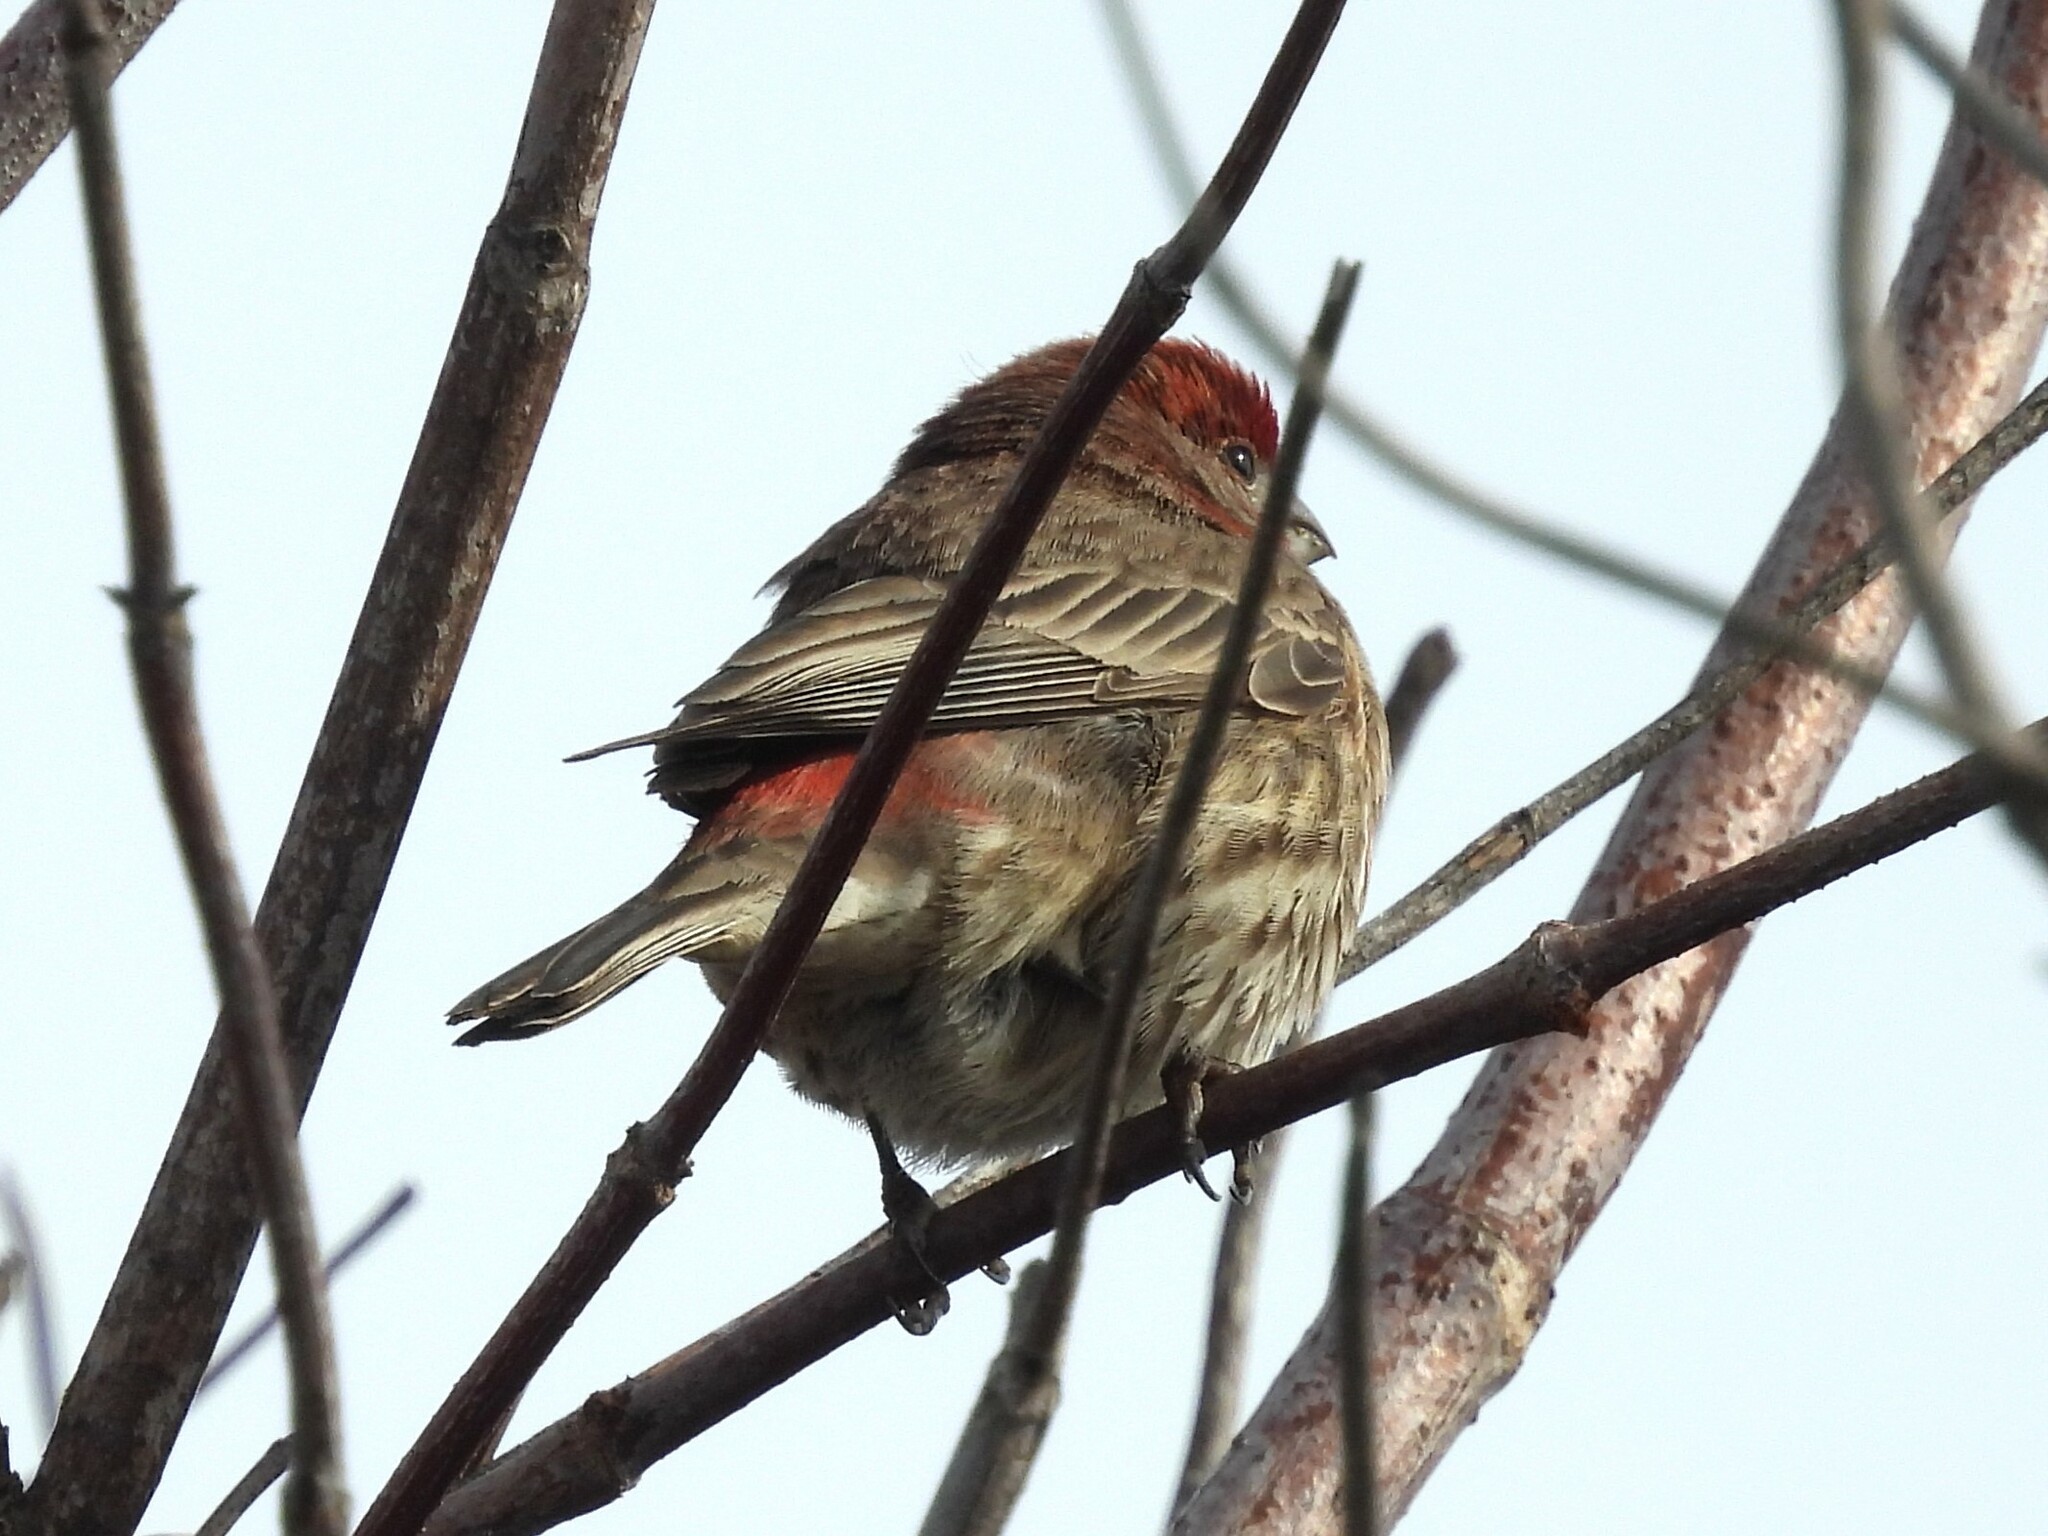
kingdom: Animalia
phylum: Chordata
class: Aves
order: Passeriformes
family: Fringillidae
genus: Haemorhous
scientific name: Haemorhous mexicanus
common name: House finch
